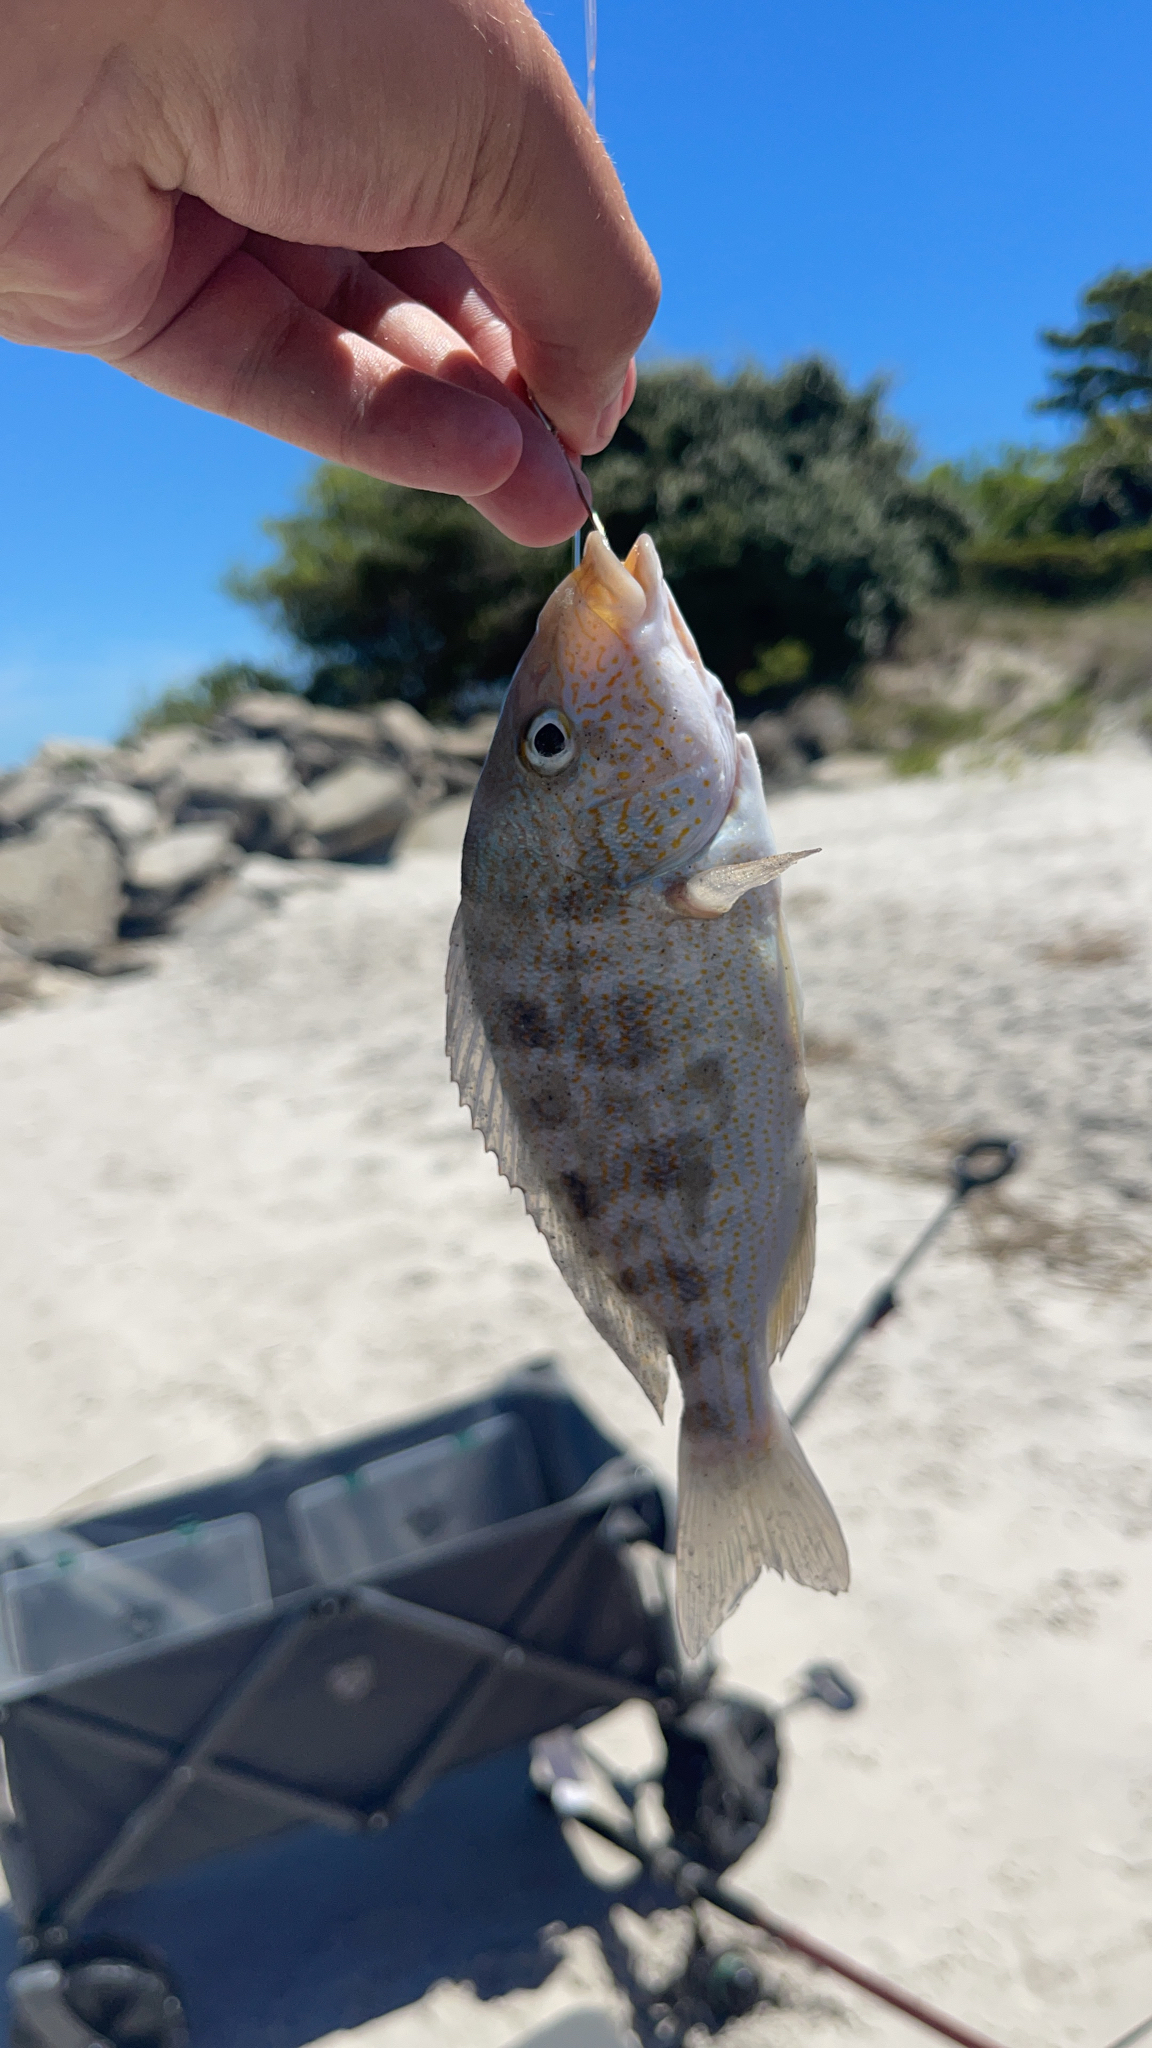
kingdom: Animalia
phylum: Chordata
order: Perciformes
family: Haemulidae
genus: Orthopristis
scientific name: Orthopristis chrysoptera
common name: Pigfish
